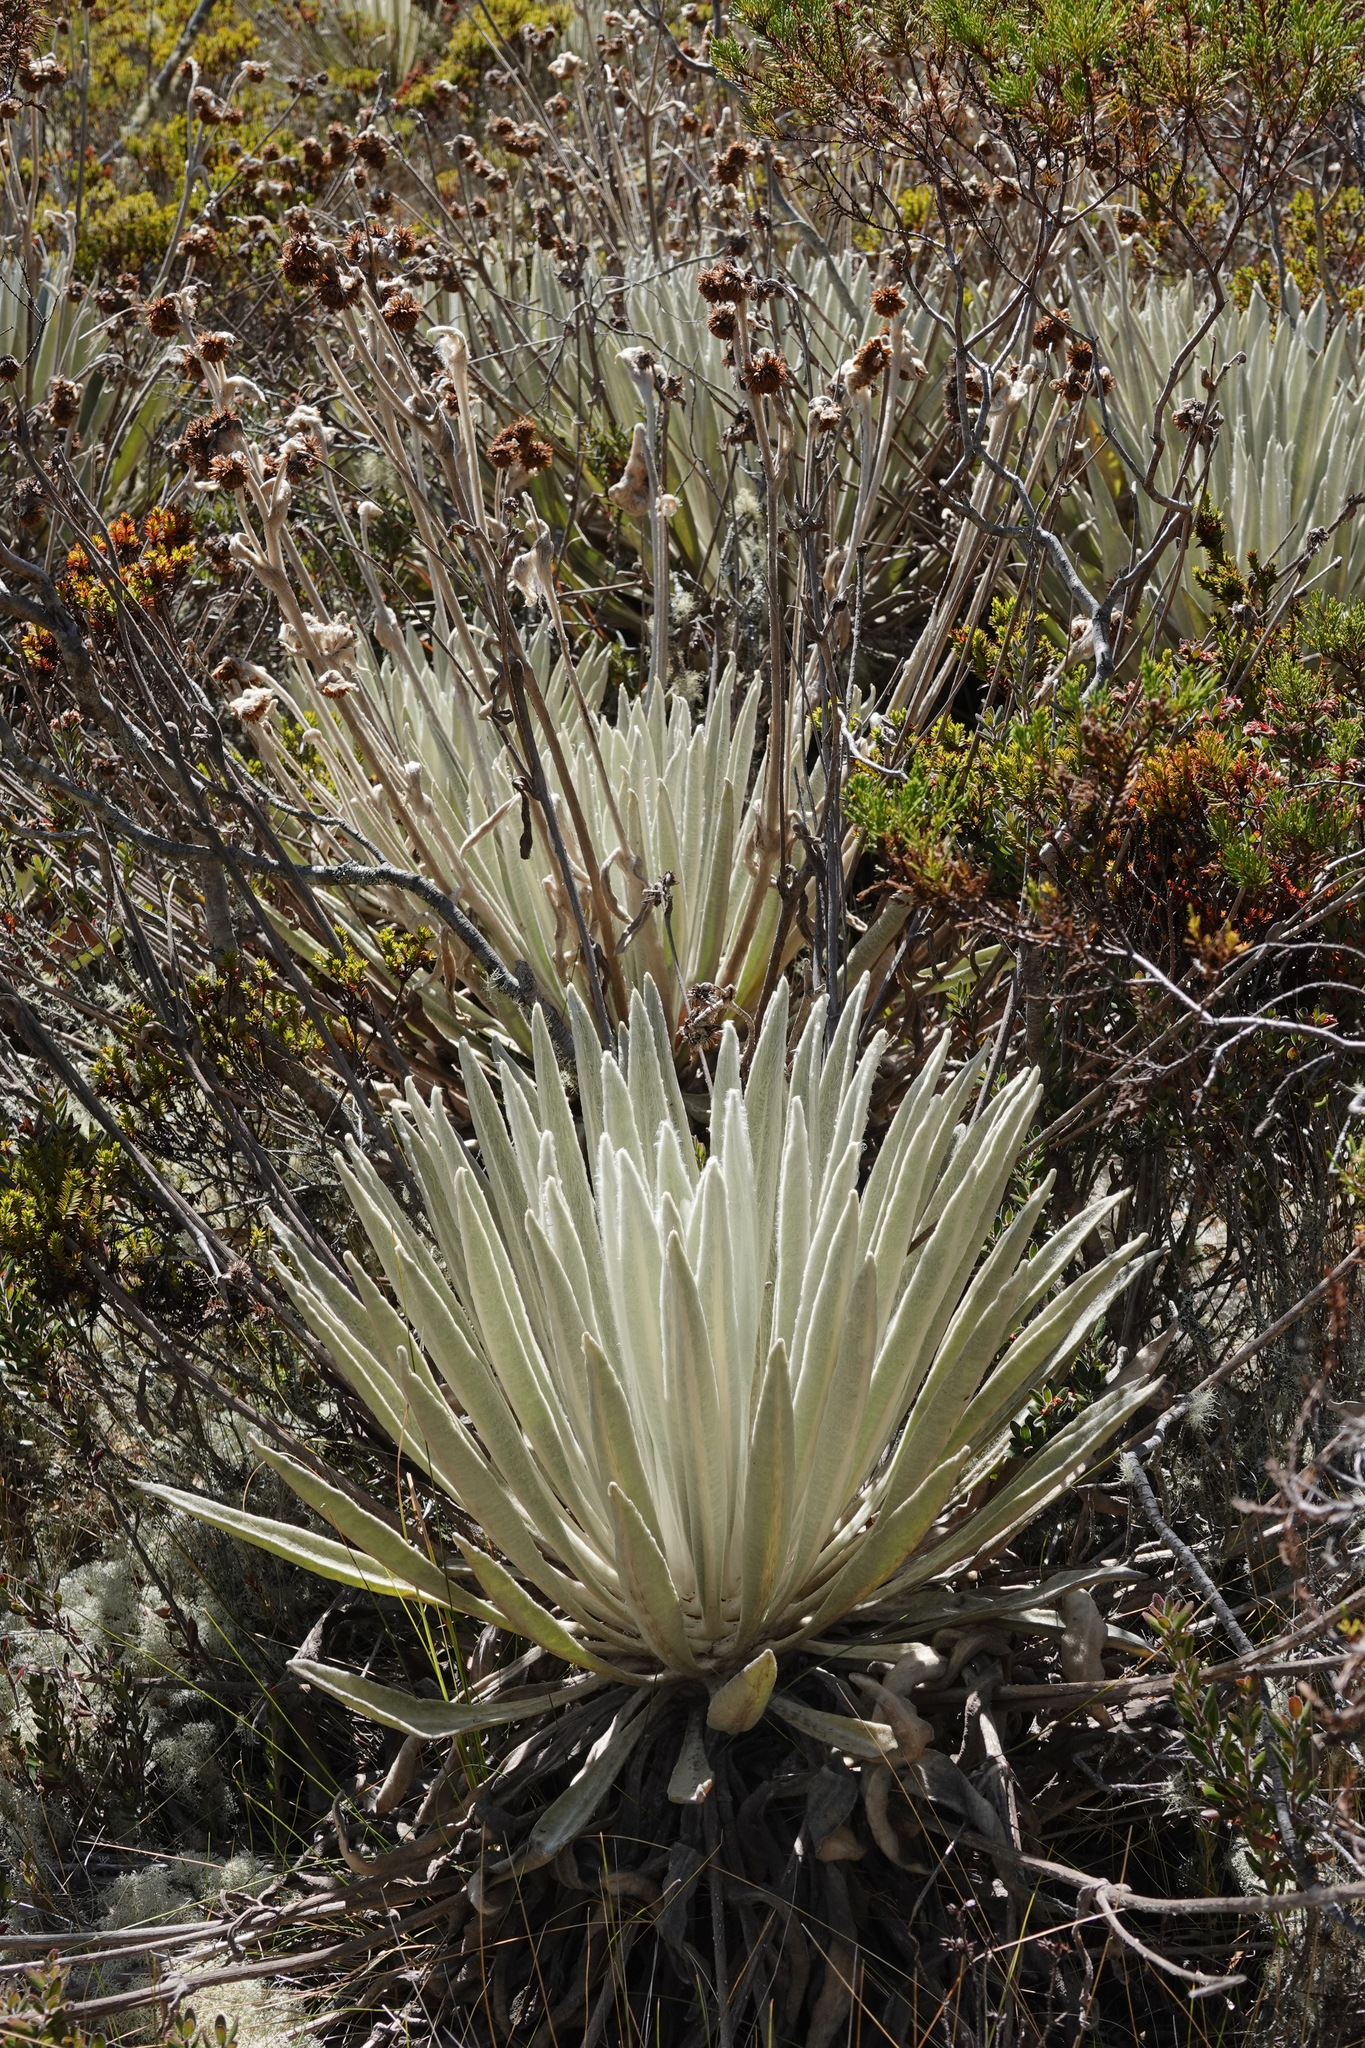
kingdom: Plantae
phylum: Tracheophyta
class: Magnoliopsida
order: Asterales
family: Asteraceae
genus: Espeletia
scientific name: Espeletia perijaensis
